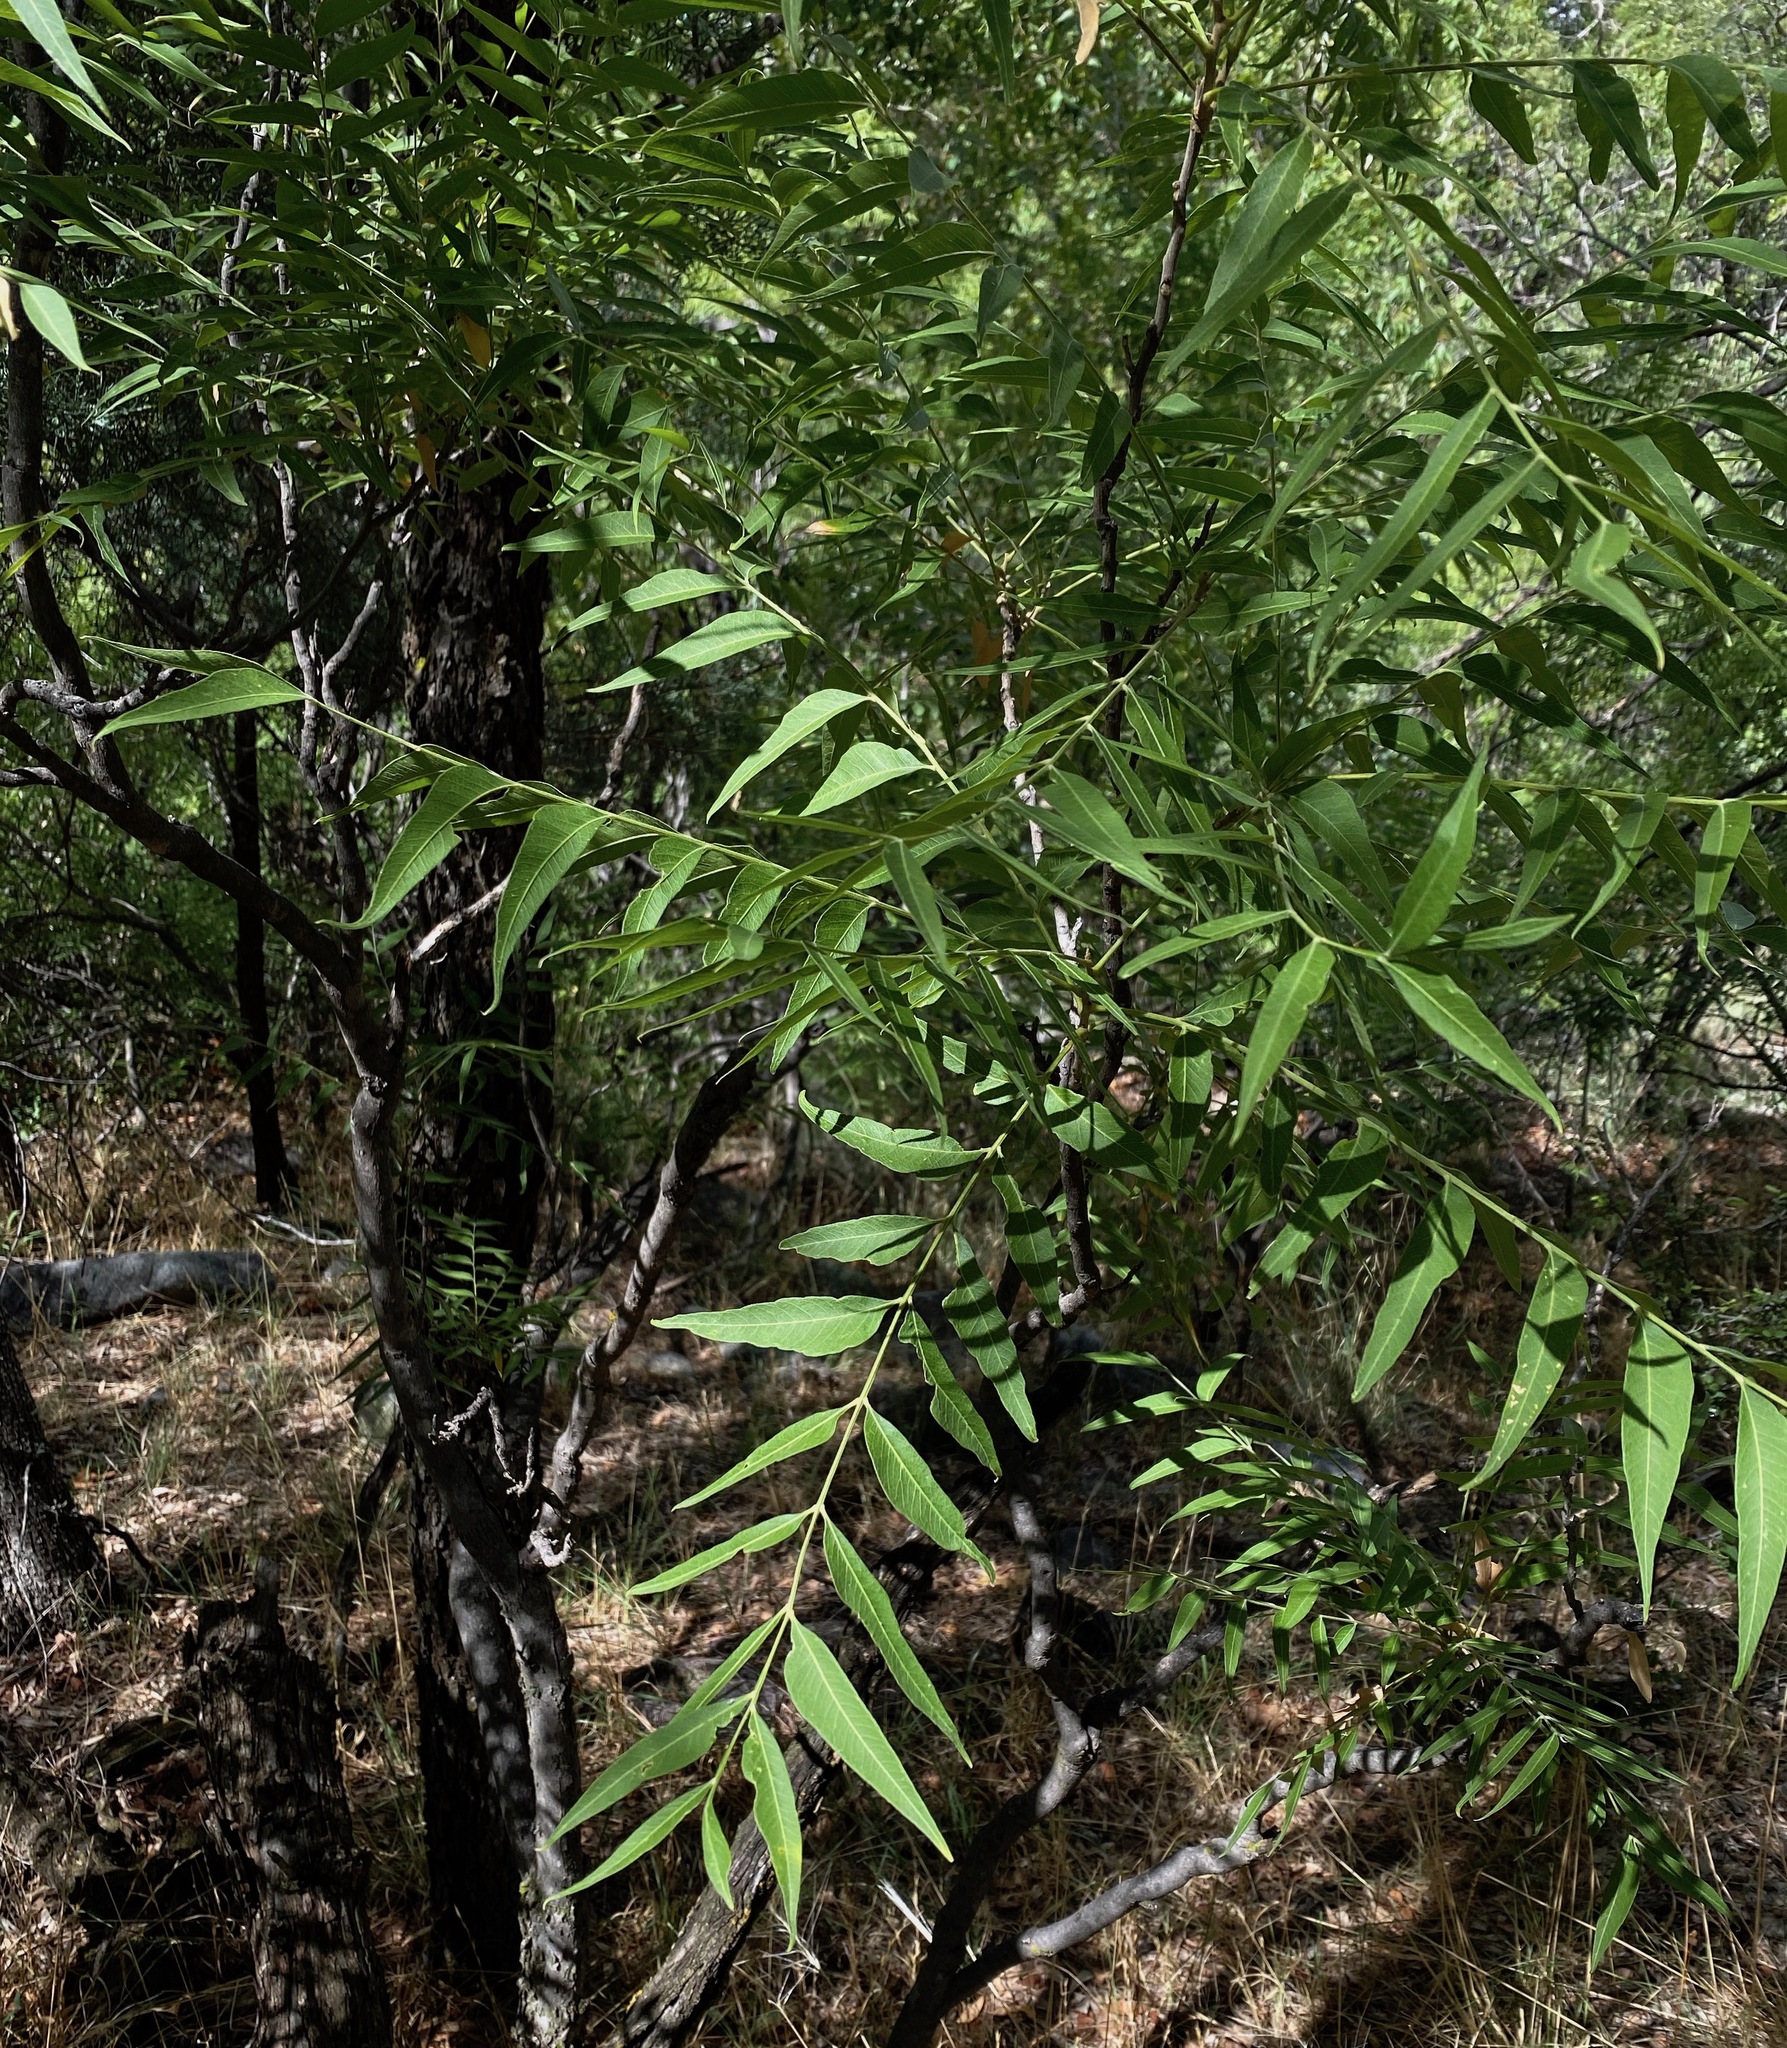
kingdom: Plantae
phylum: Tracheophyta
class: Magnoliopsida
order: Sapindales
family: Sapindaceae
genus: Sapindus
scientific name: Sapindus drummondii
